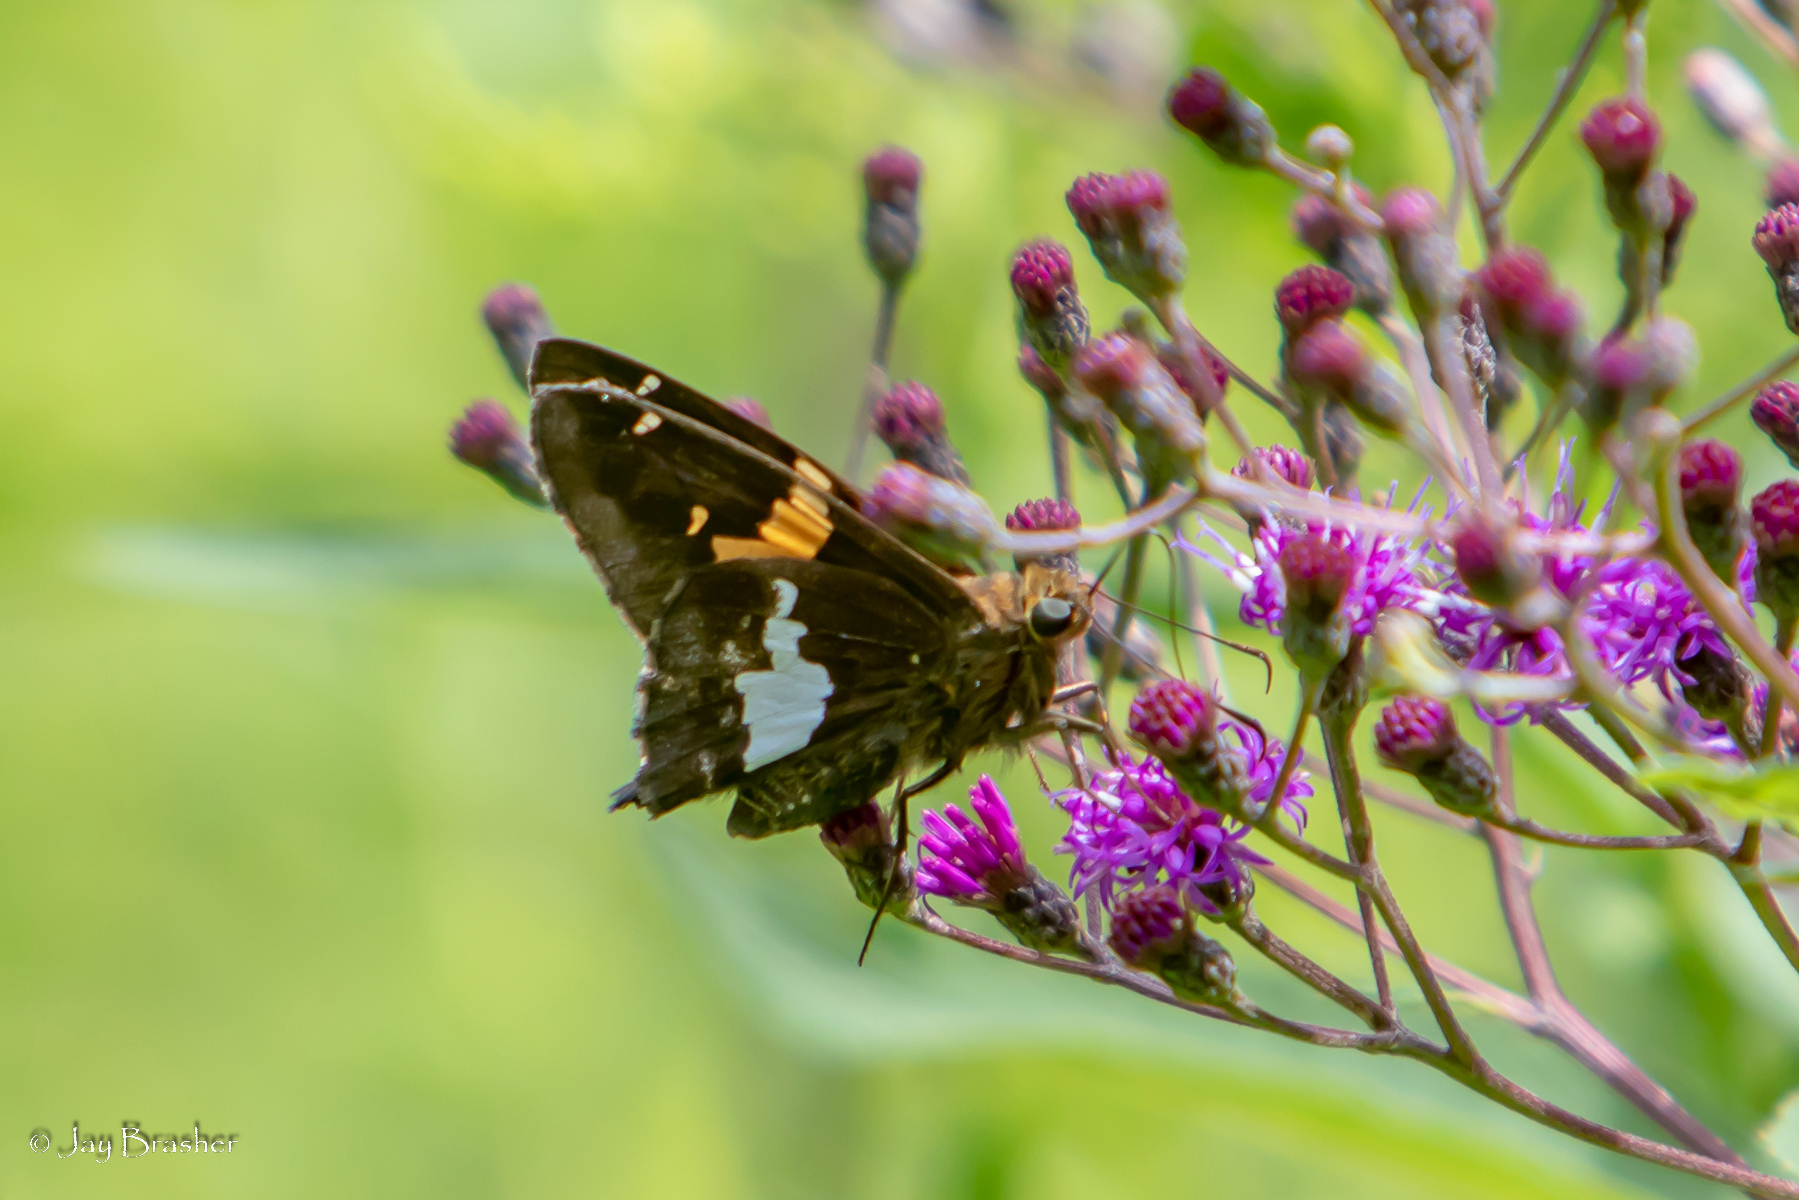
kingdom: Animalia
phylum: Arthropoda
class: Insecta
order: Lepidoptera
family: Hesperiidae
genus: Epargyreus
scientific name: Epargyreus clarus
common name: Silver-spotted skipper
